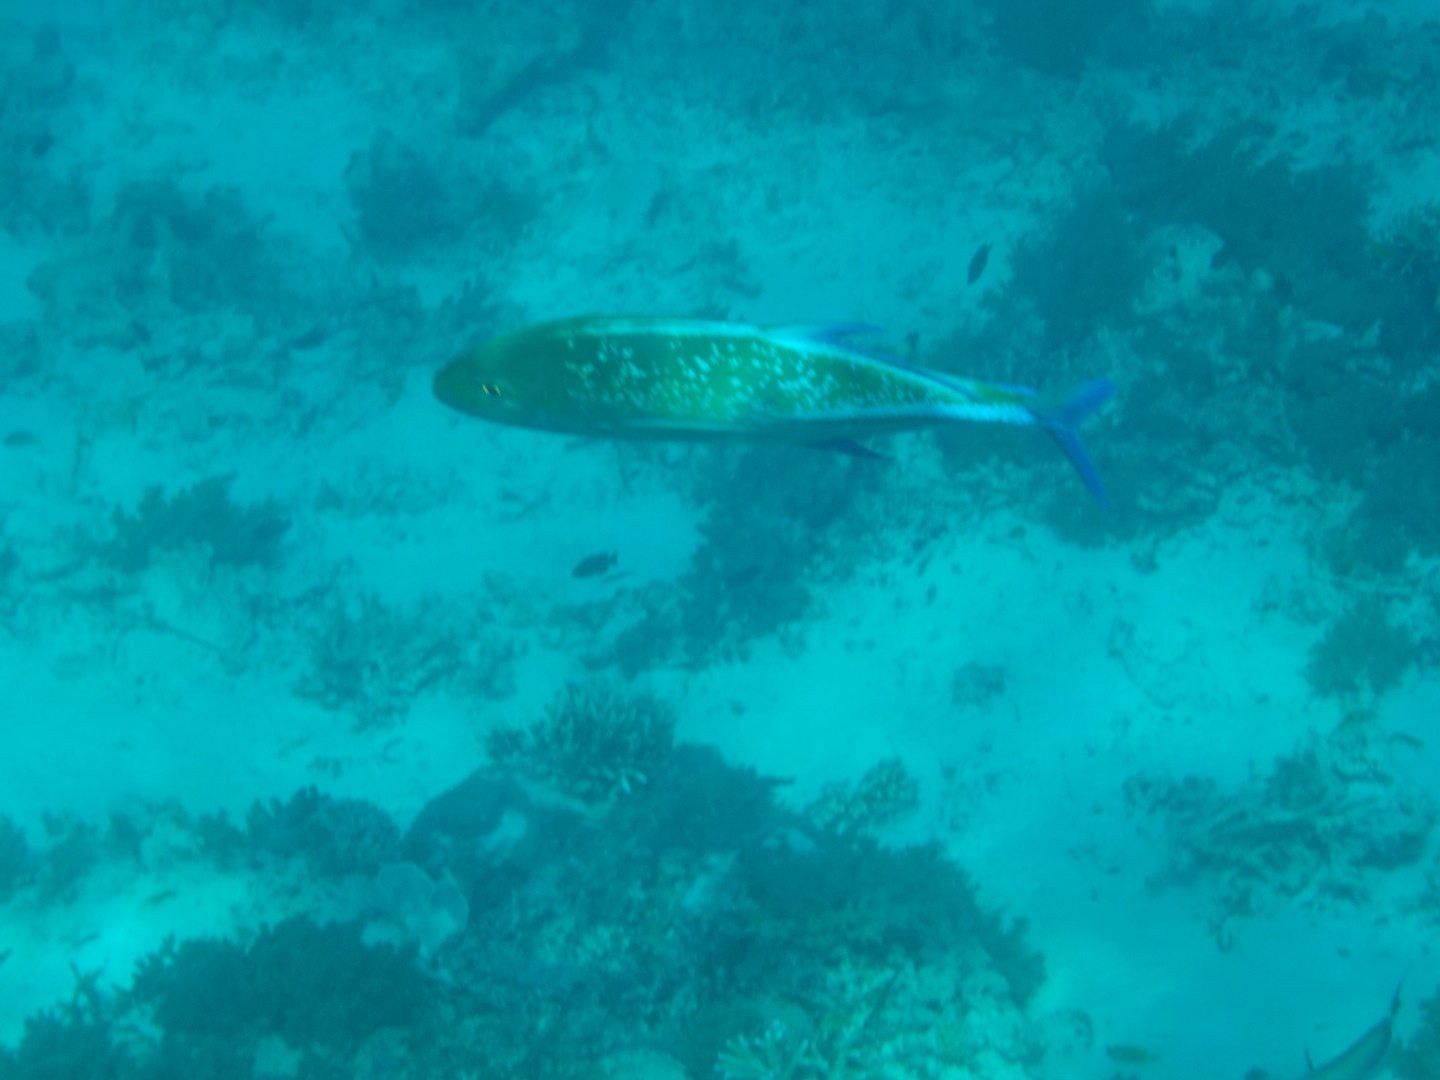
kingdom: Animalia
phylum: Chordata
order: Perciformes
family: Carangidae
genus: Caranx
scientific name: Caranx melampygus
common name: Bluefin trevally
